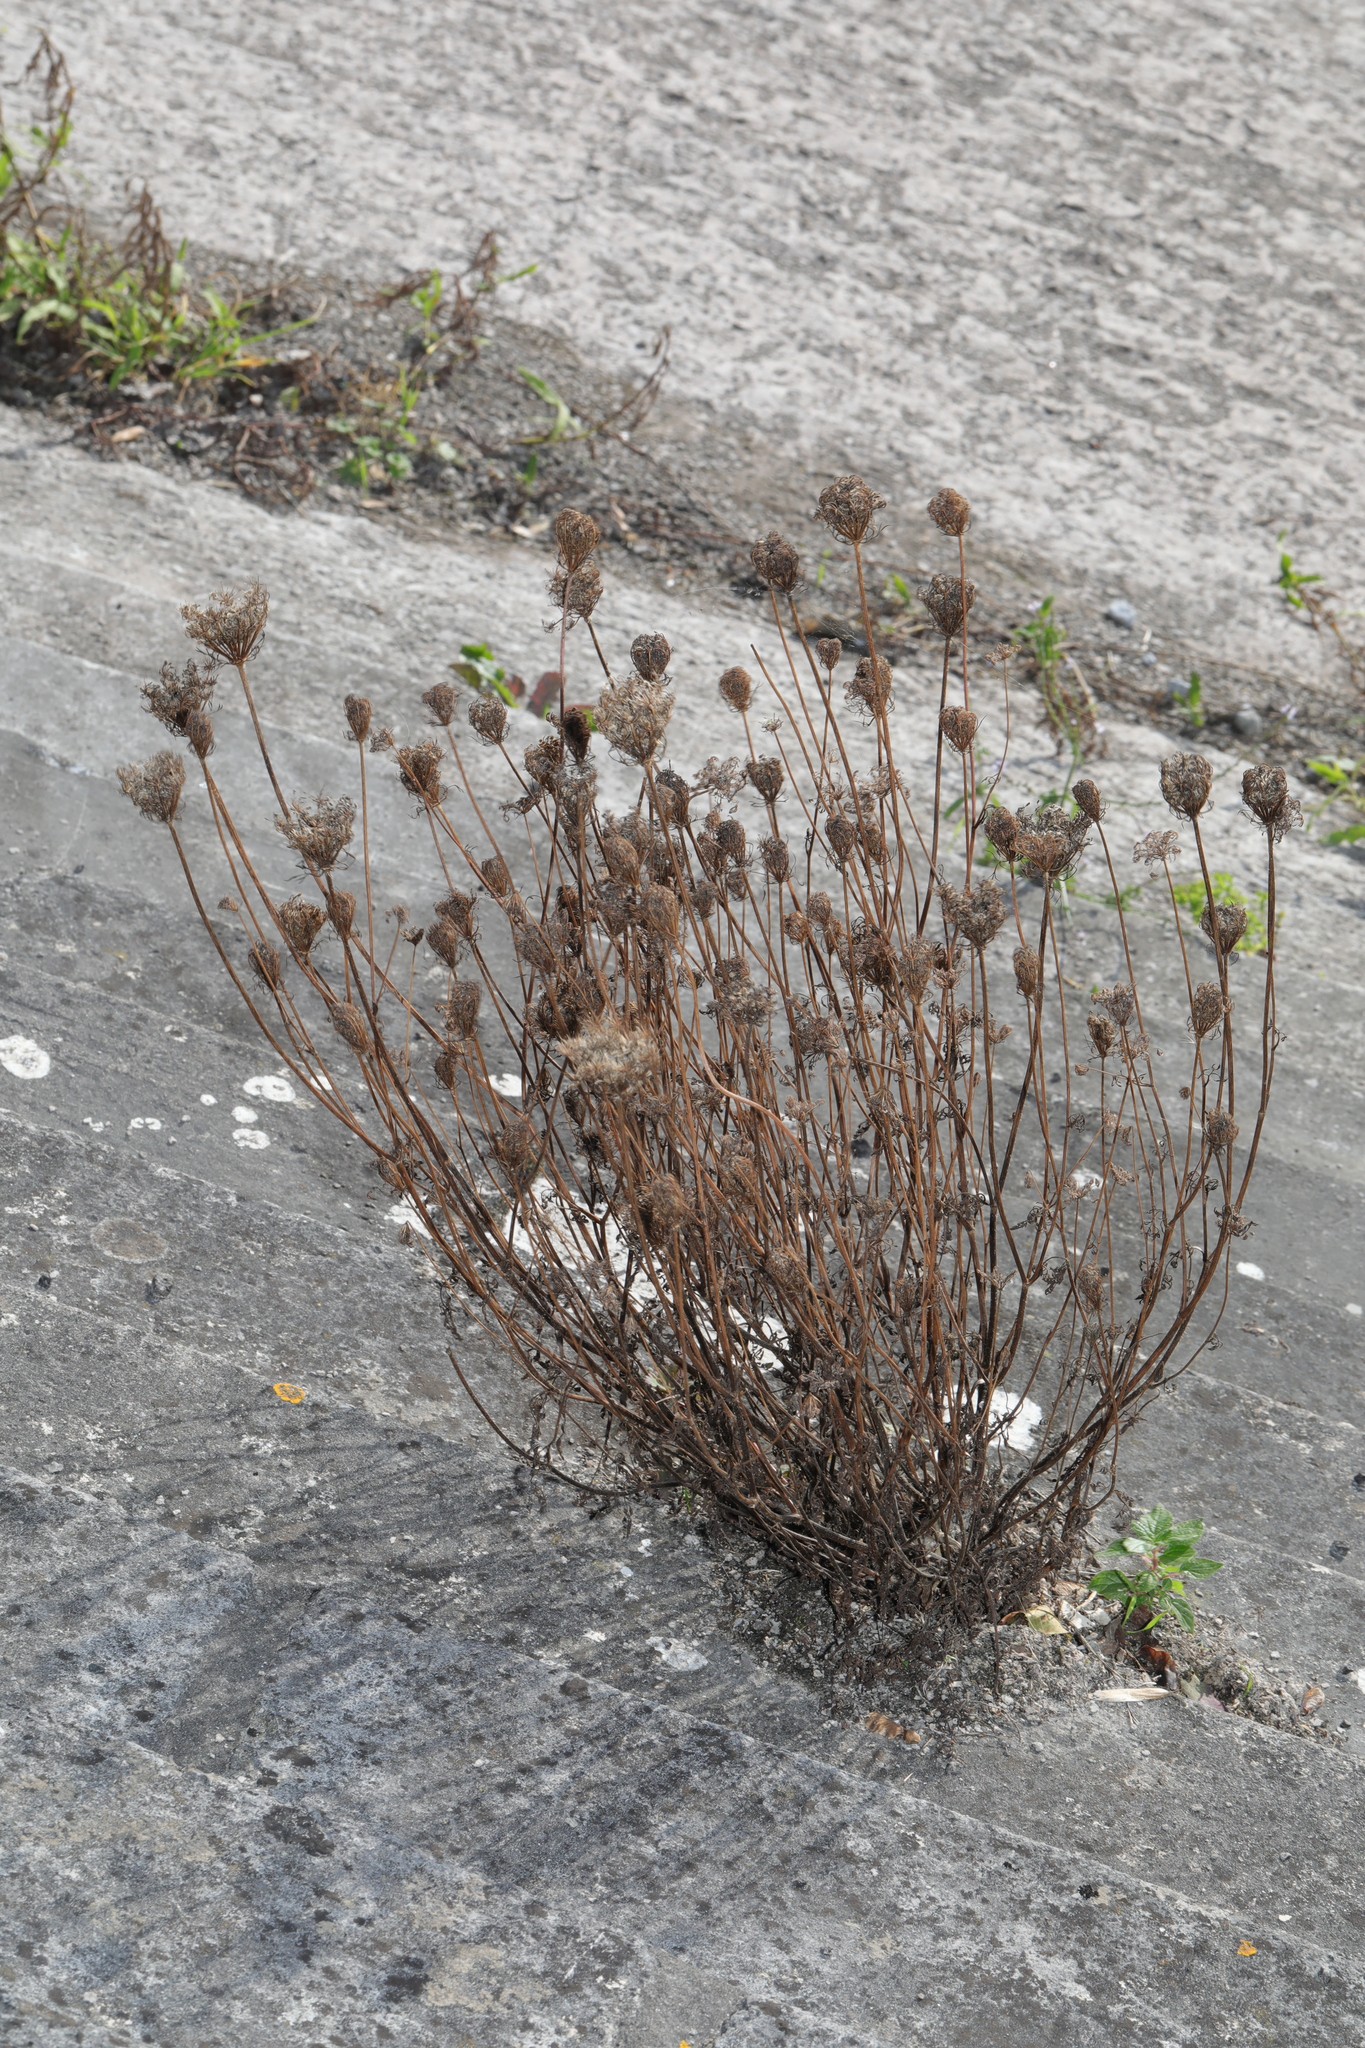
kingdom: Plantae
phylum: Tracheophyta
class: Magnoliopsida
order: Apiales
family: Apiaceae
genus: Daucus
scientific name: Daucus carota
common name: Wild carrot
